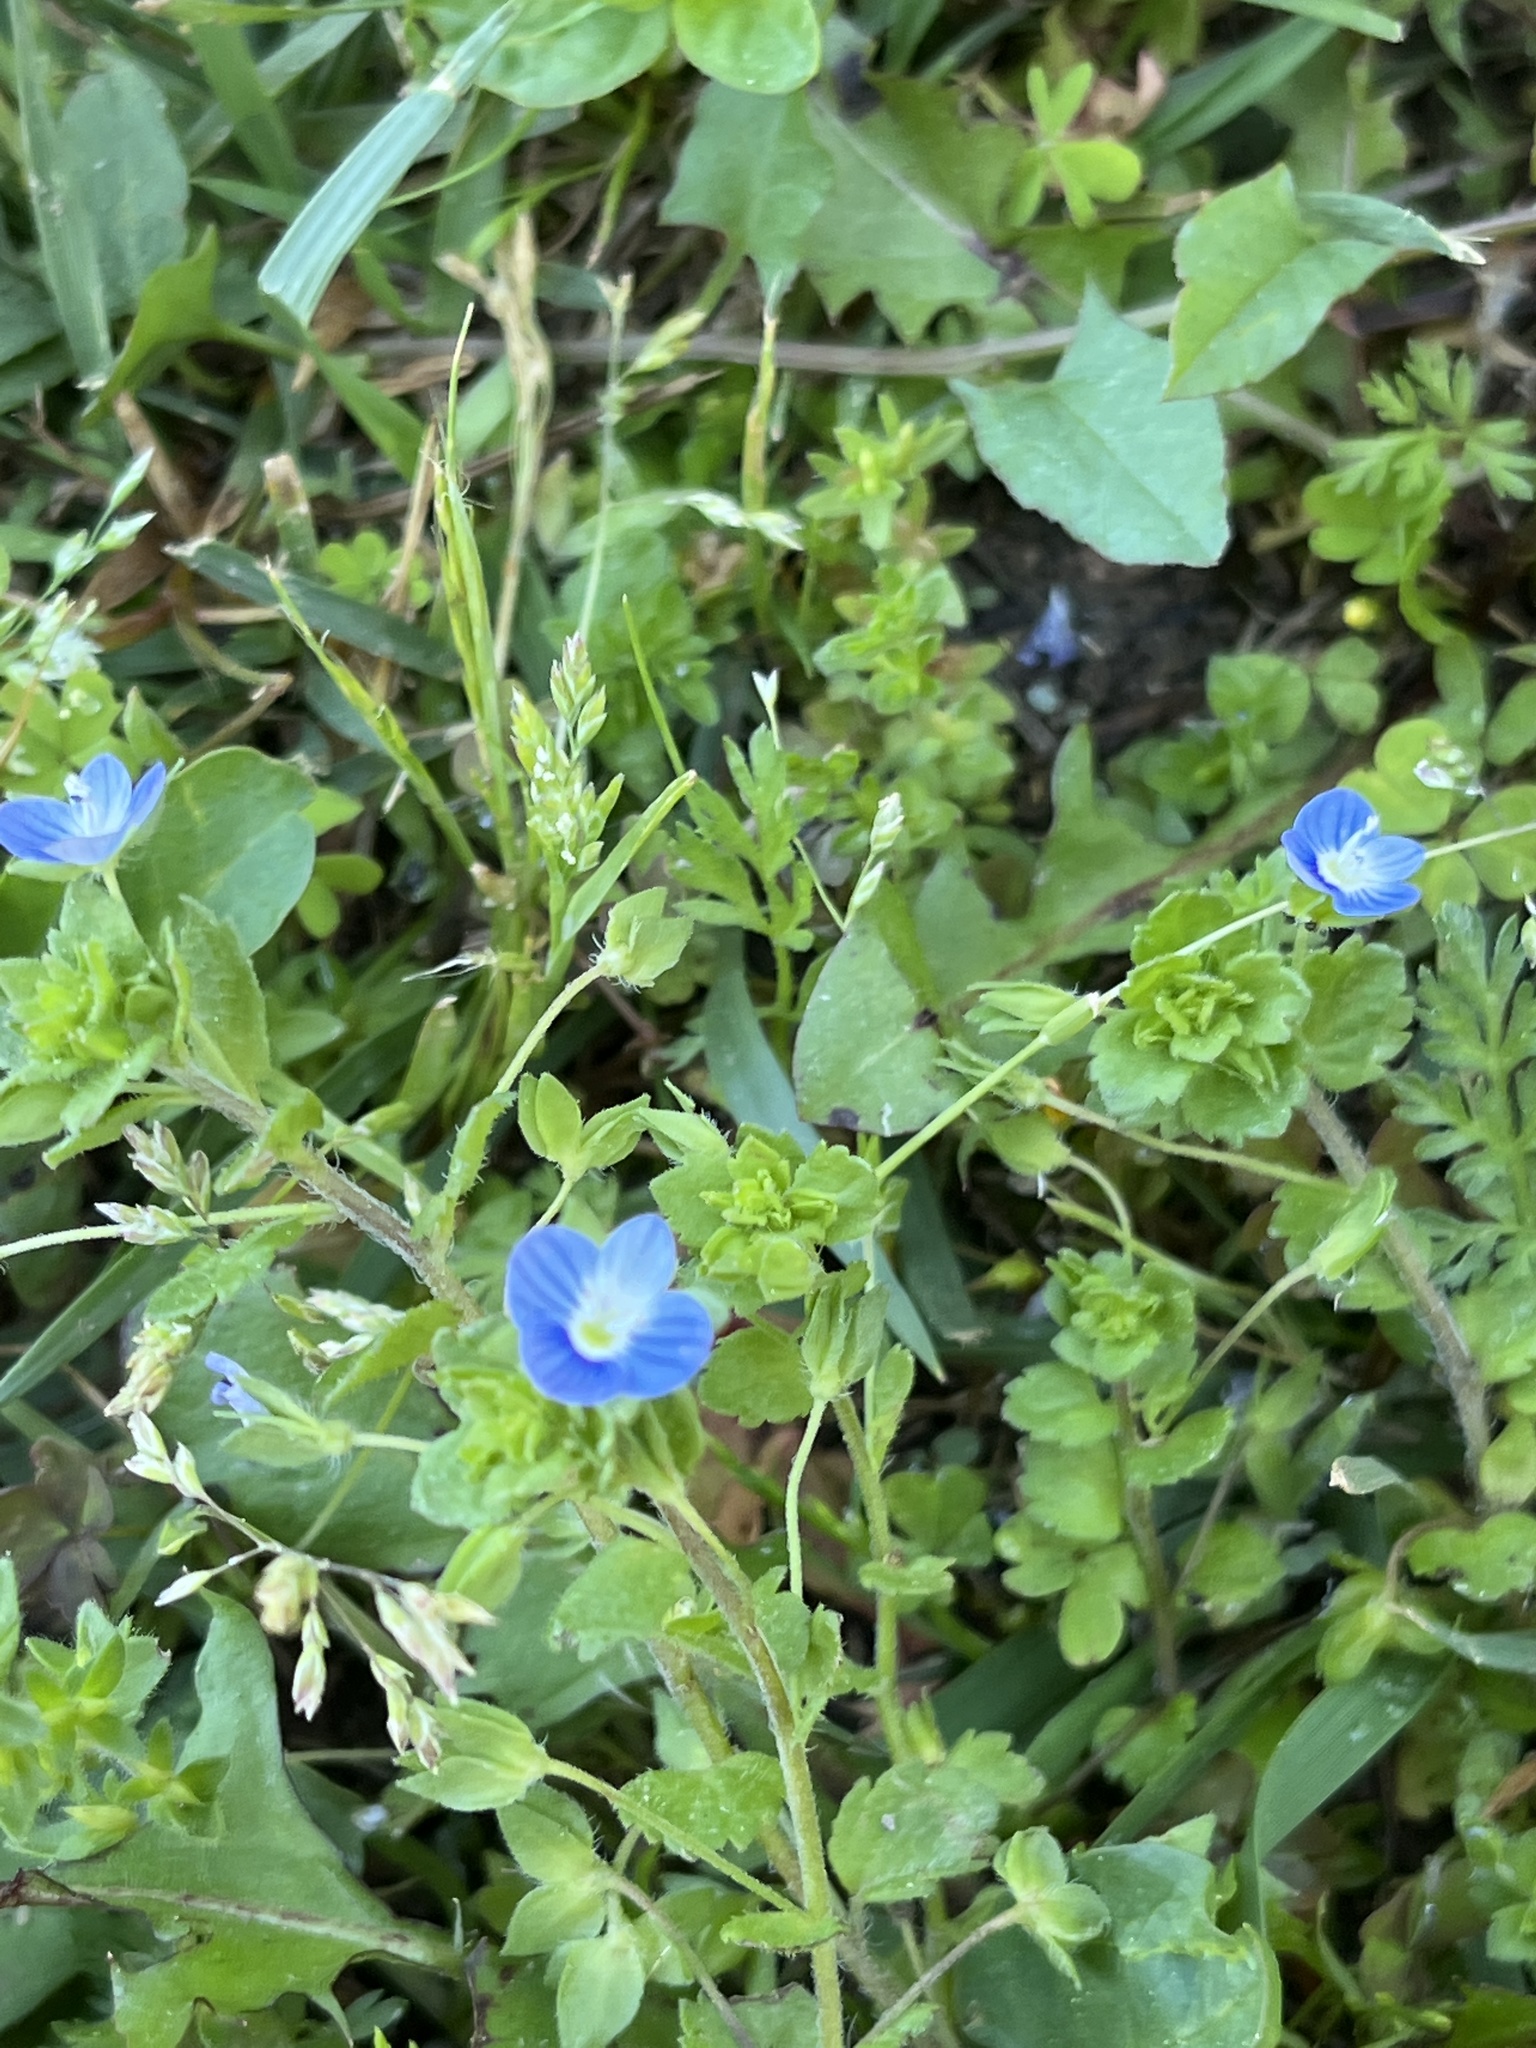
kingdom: Plantae
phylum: Tracheophyta
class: Magnoliopsida
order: Lamiales
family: Plantaginaceae
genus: Veronica
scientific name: Veronica persica
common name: Common field-speedwell
